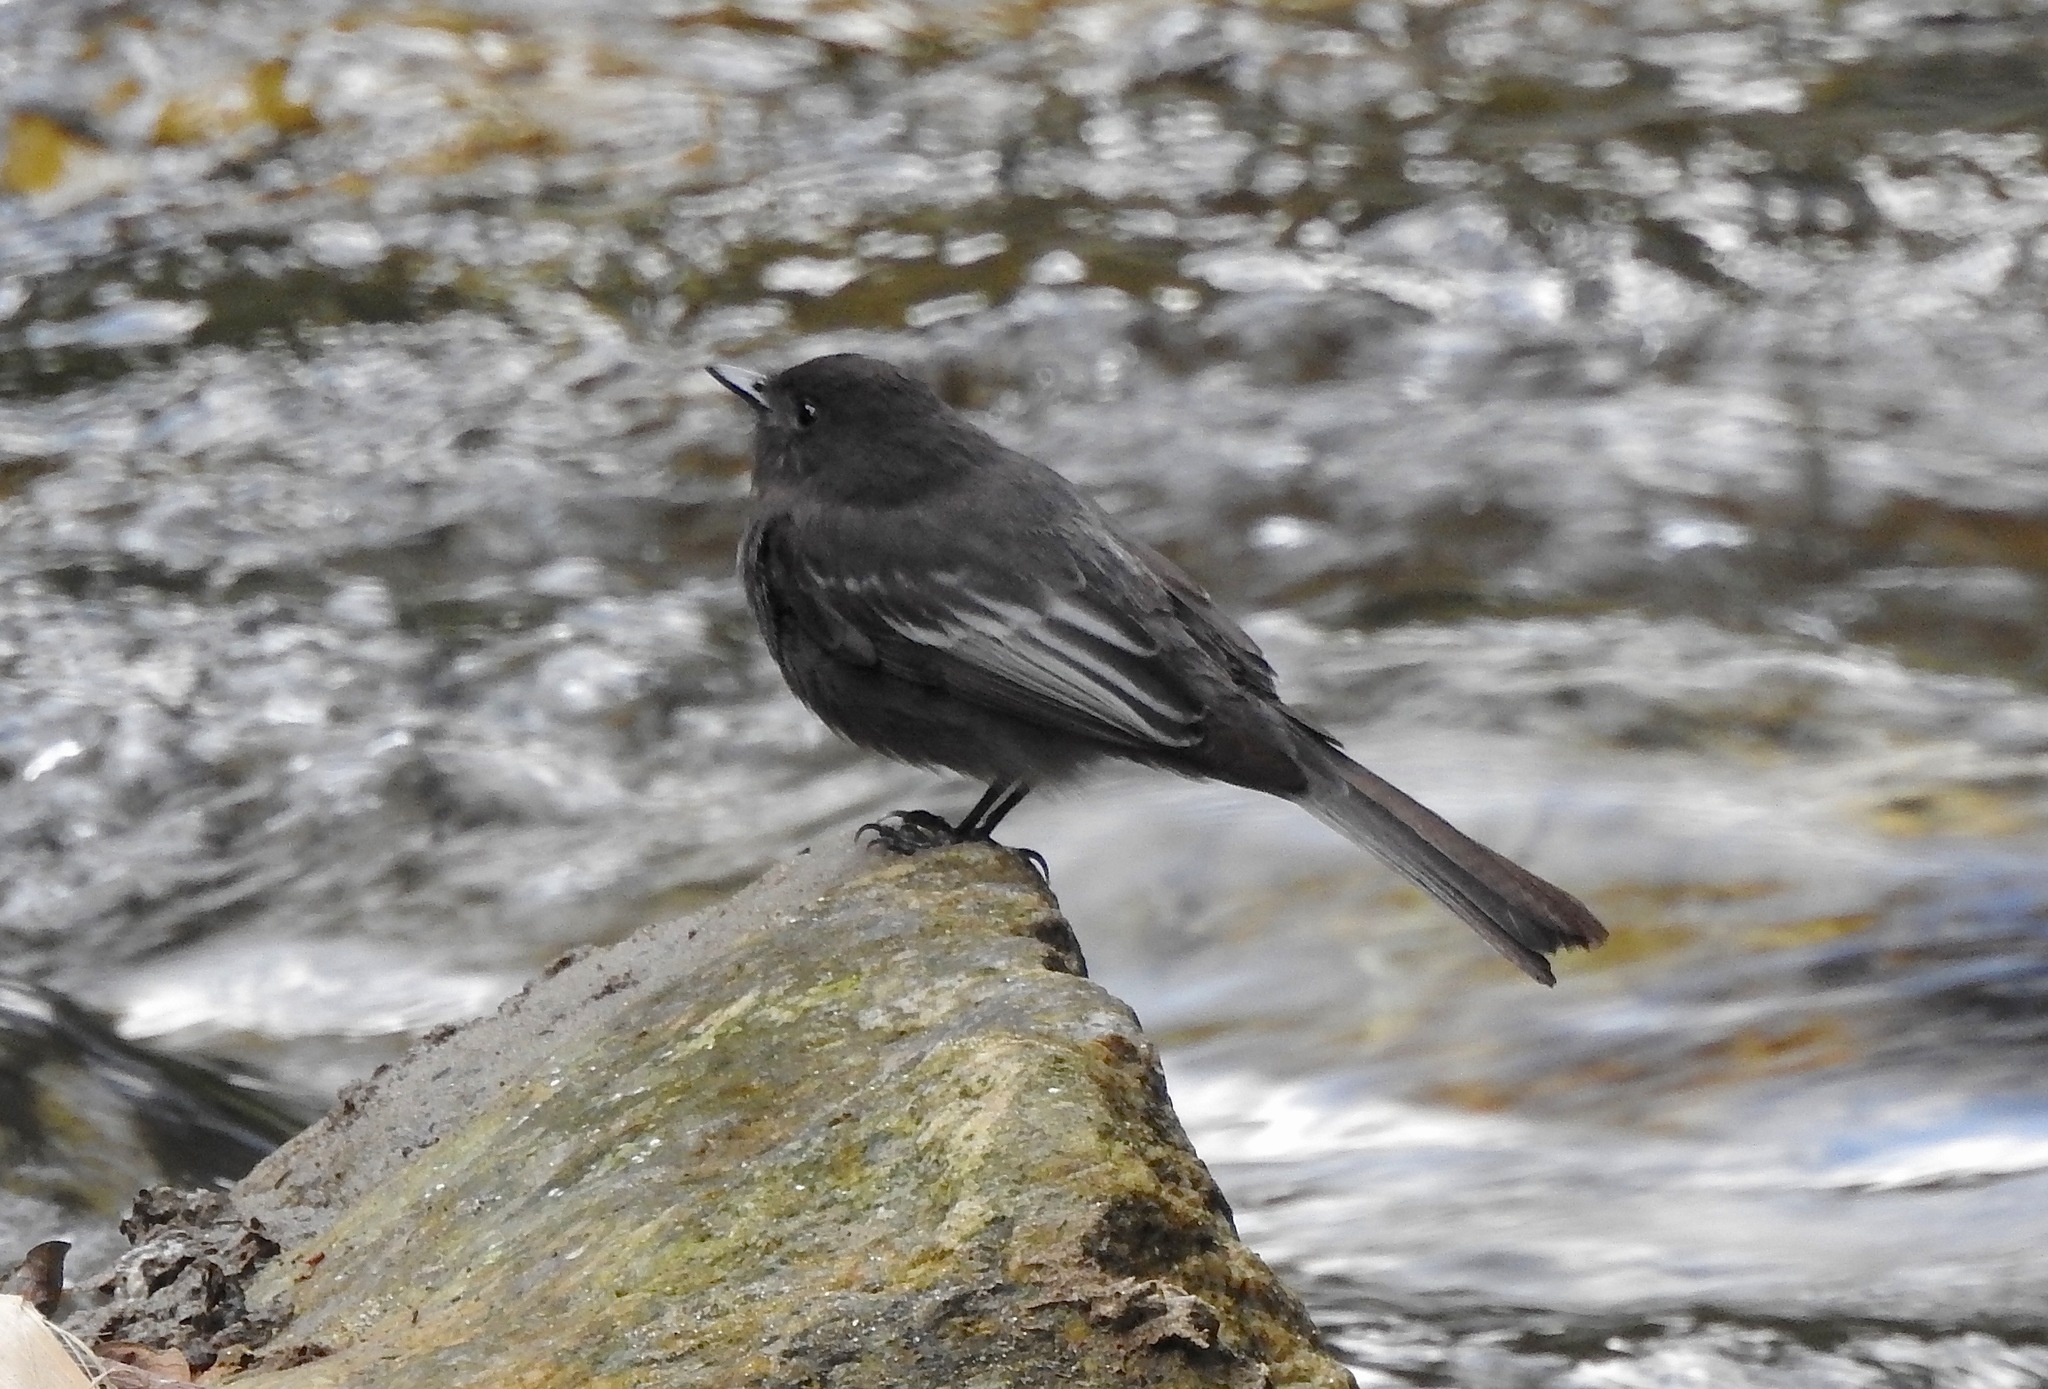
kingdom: Animalia
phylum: Chordata
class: Aves
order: Passeriformes
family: Tyrannidae
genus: Sayornis
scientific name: Sayornis nigricans
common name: Black phoebe
